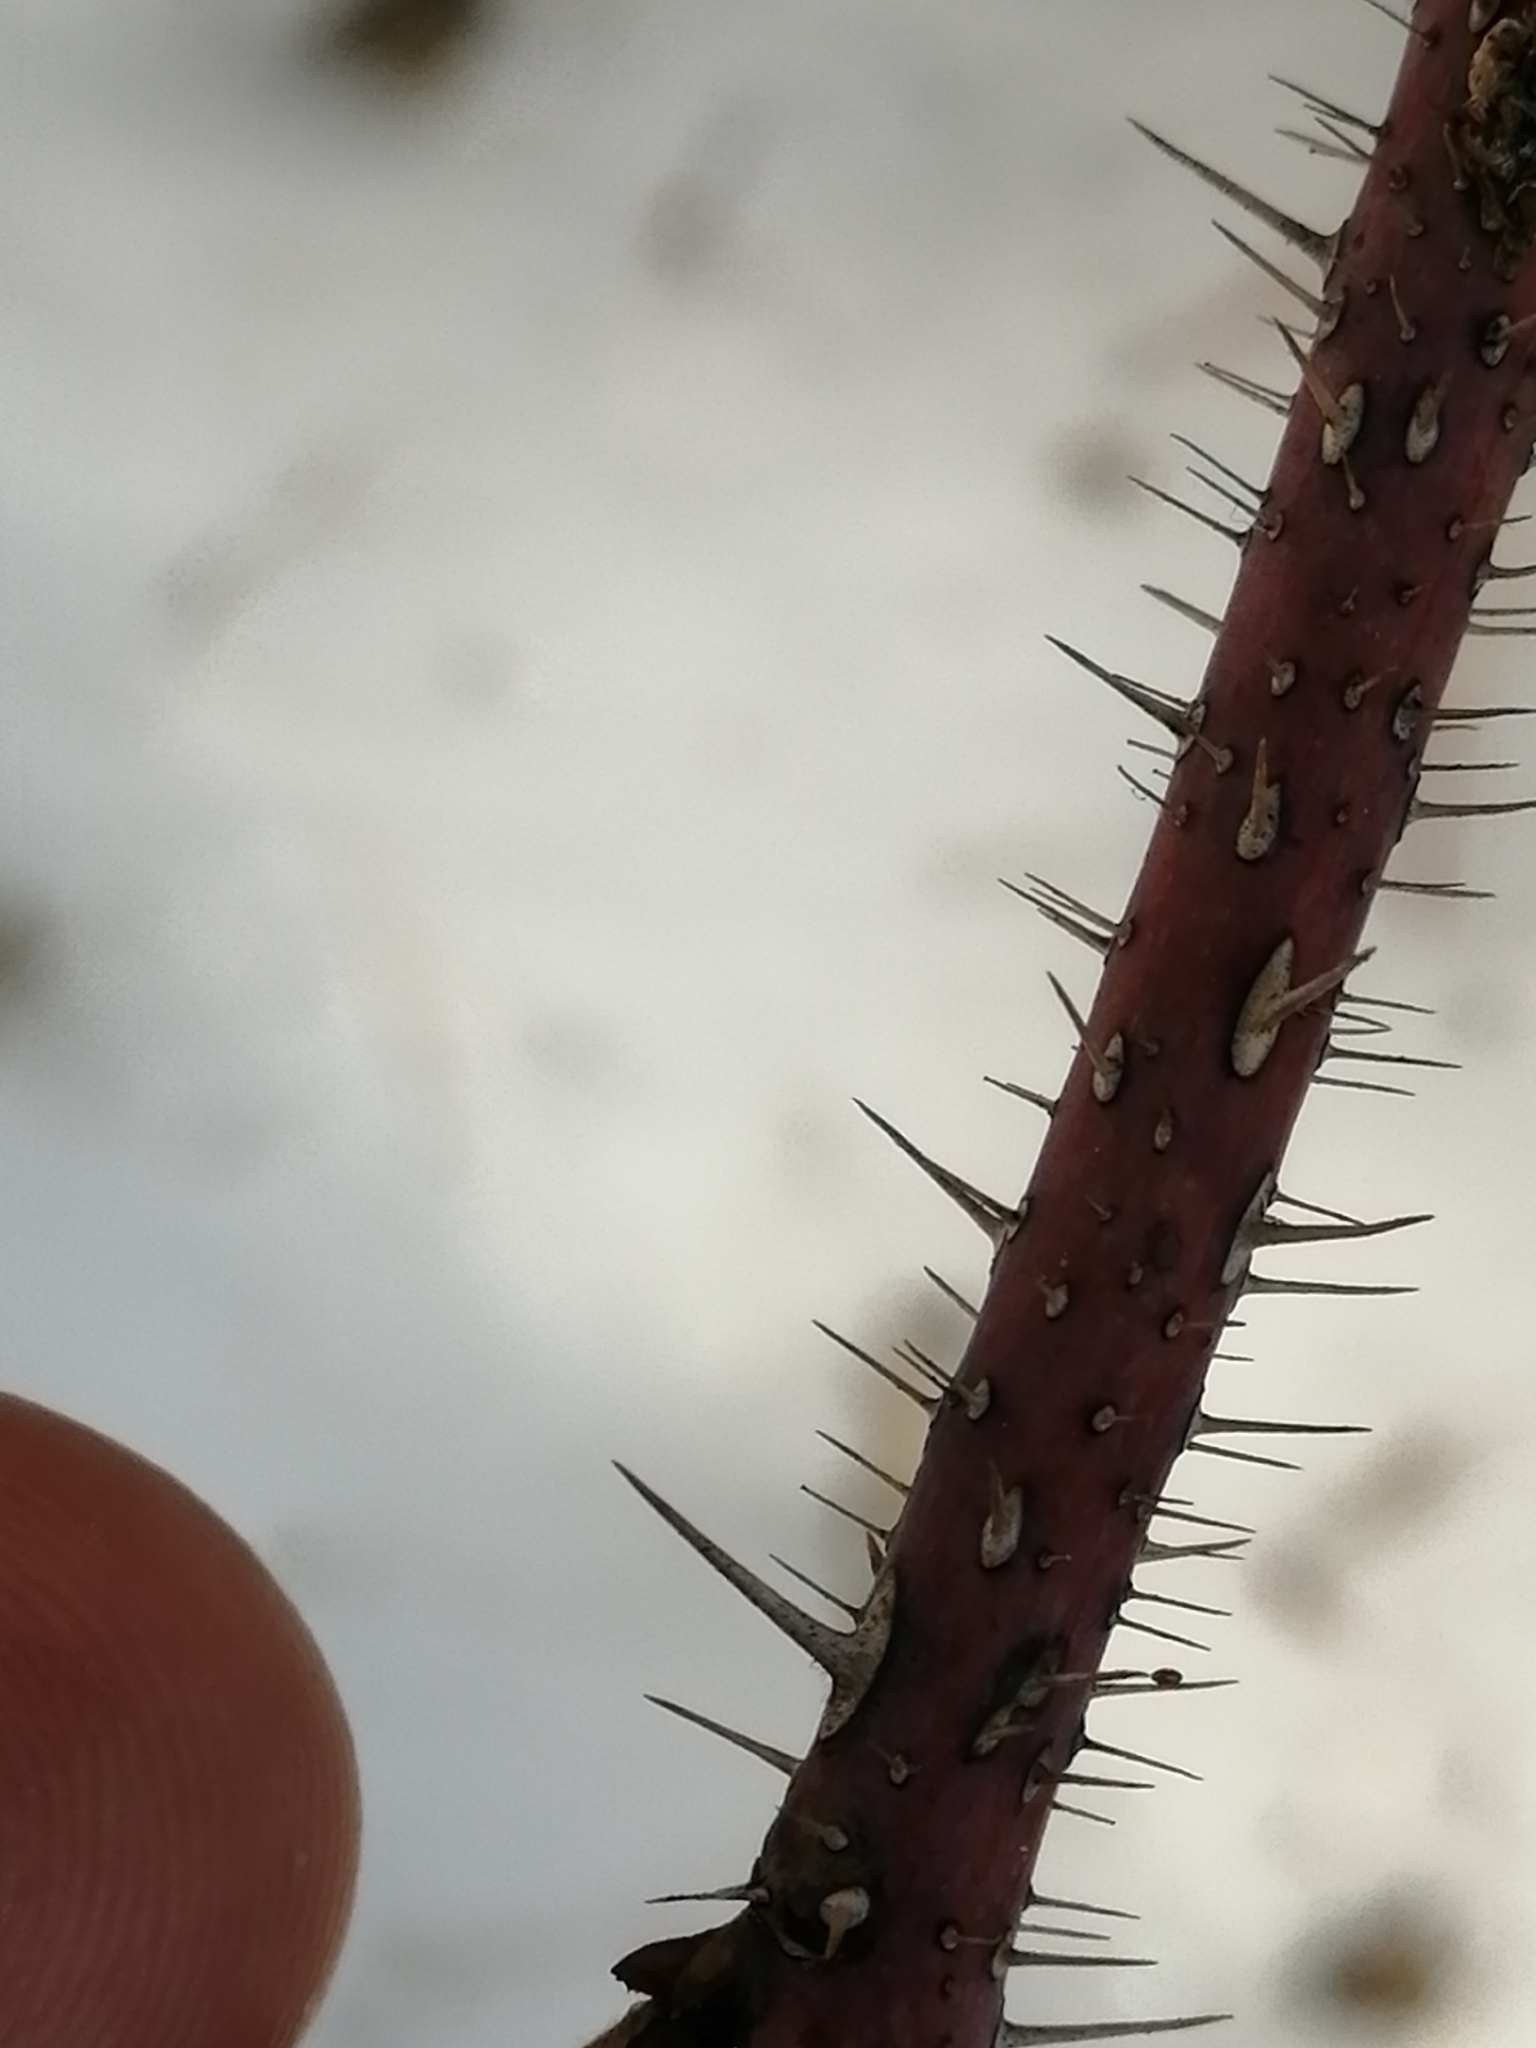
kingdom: Plantae
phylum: Tracheophyta
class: Magnoliopsida
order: Rosales
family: Rosaceae
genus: Rosa
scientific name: Rosa acicularis
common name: Prickly rose
